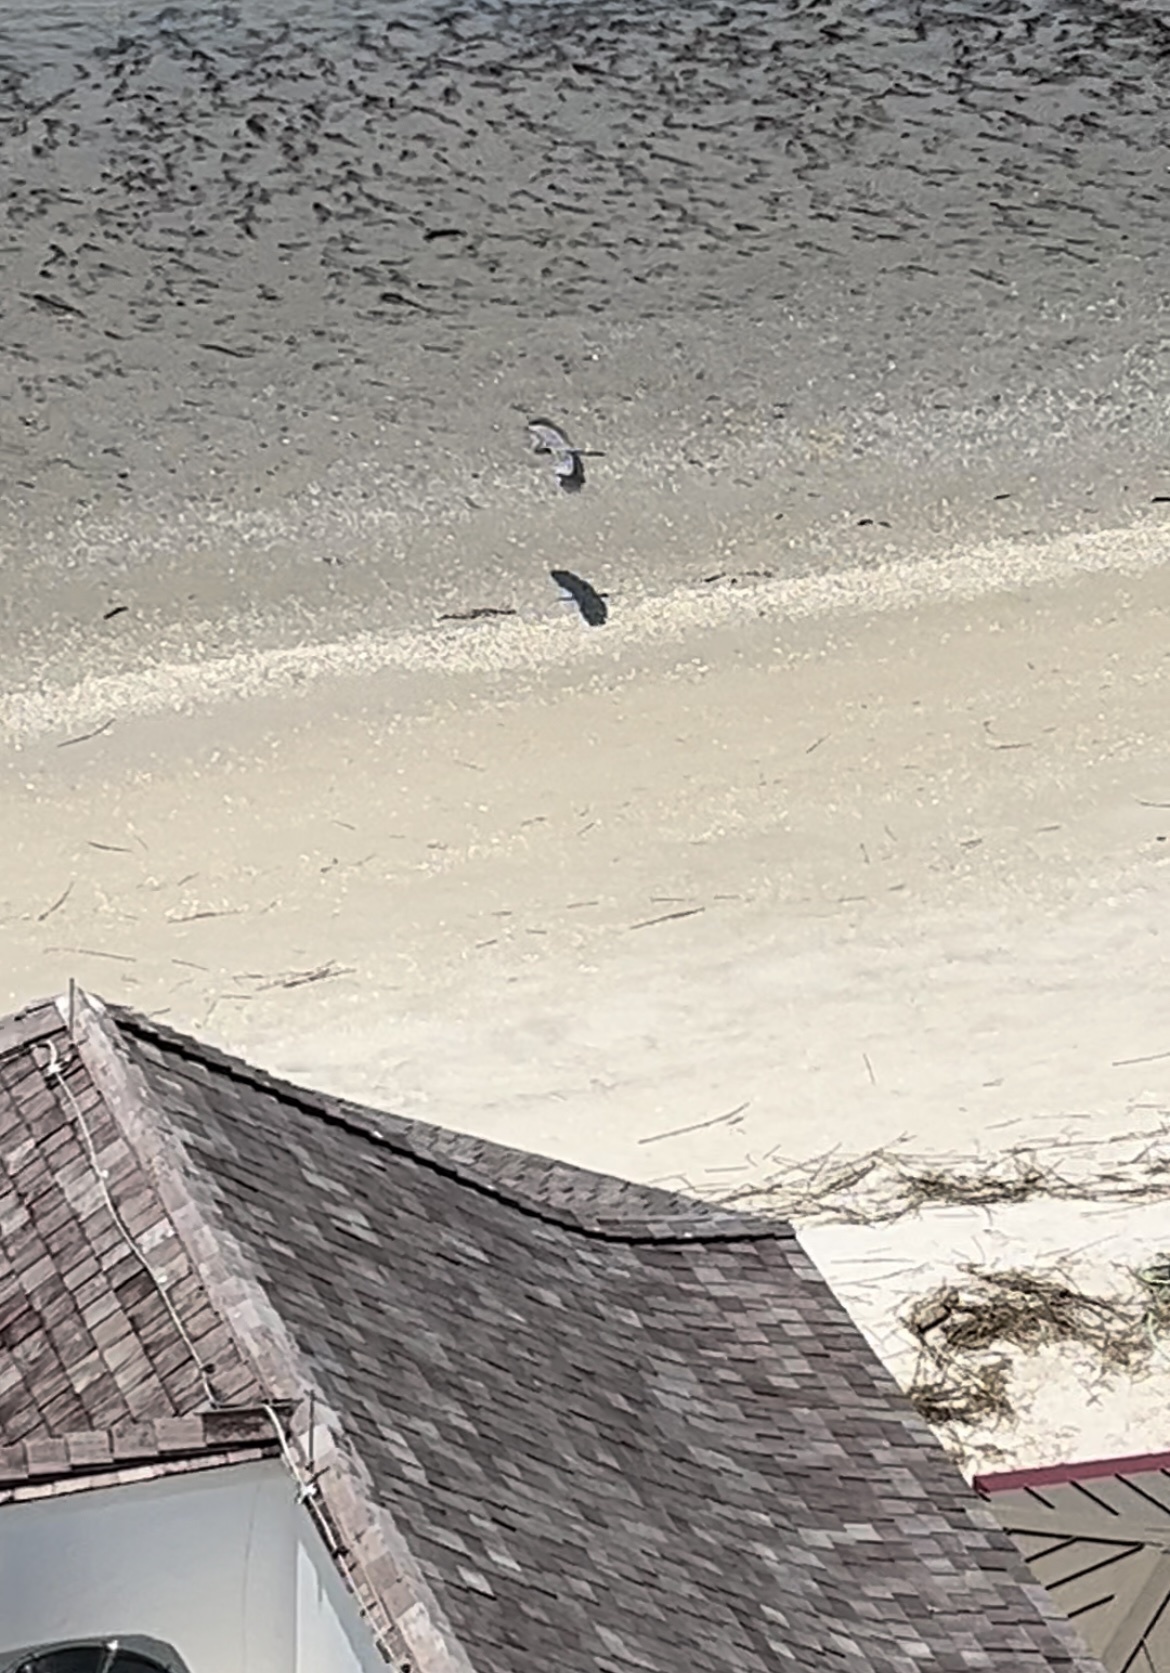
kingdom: Animalia
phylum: Chordata
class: Aves
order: Pelecaniformes
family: Ardeidae
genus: Ardea
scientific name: Ardea herodias
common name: Great blue heron
